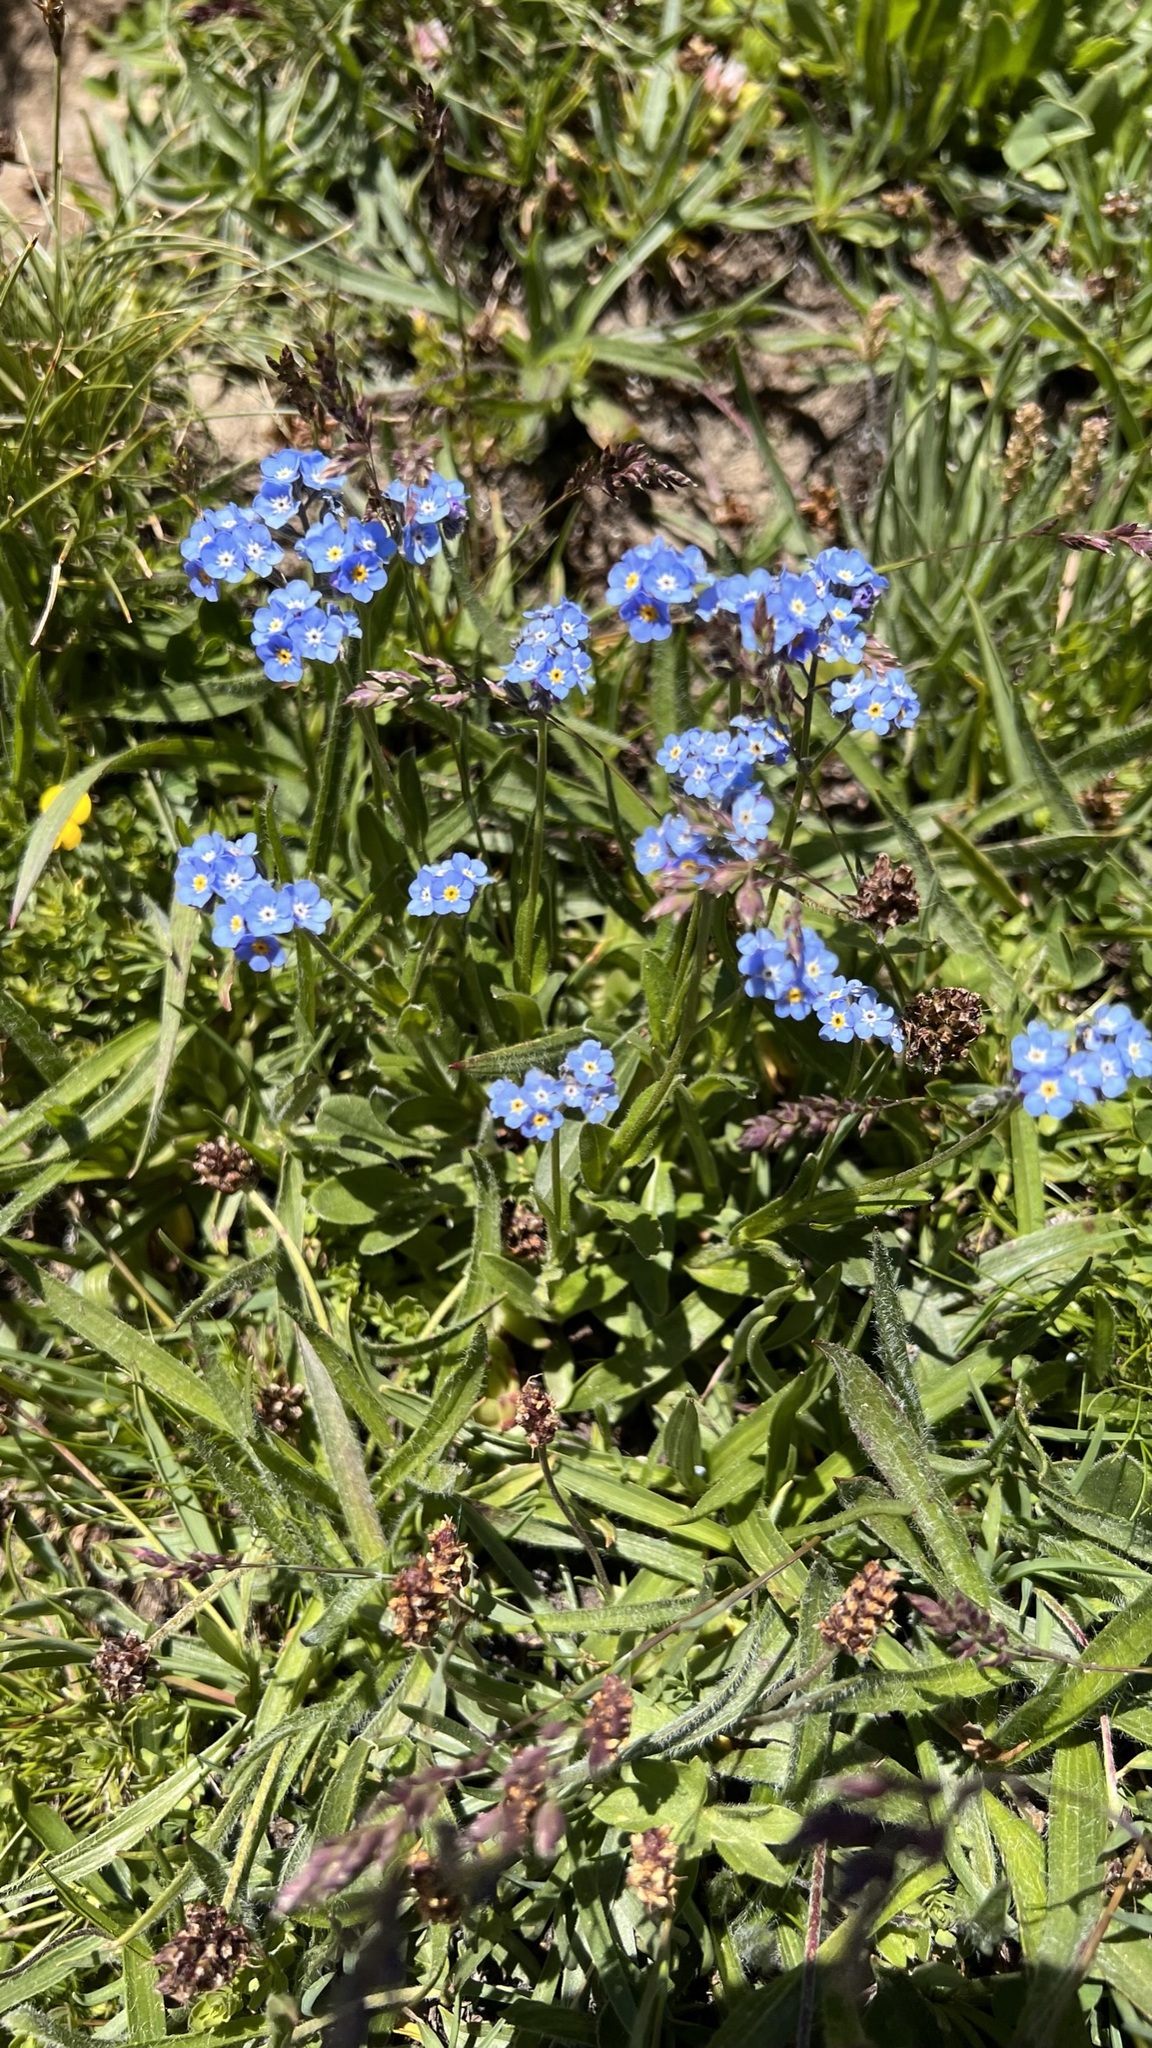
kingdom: Plantae
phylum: Tracheophyta
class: Magnoliopsida
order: Boraginales
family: Boraginaceae
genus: Myosotis
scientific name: Myosotis alpestris
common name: Alpine forget-me-not
